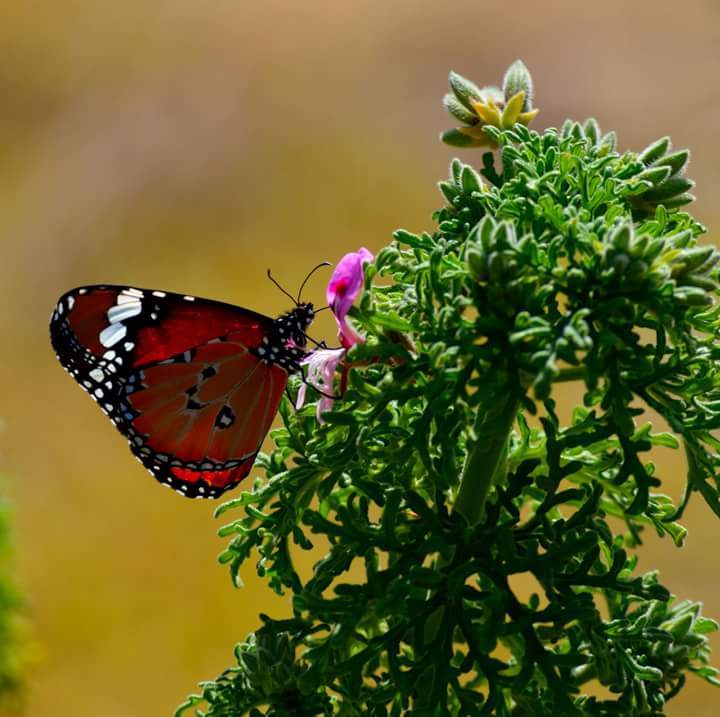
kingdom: Animalia
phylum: Arthropoda
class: Insecta
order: Lepidoptera
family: Nymphalidae
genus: Danaus
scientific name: Danaus chrysippus
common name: Plain tiger
